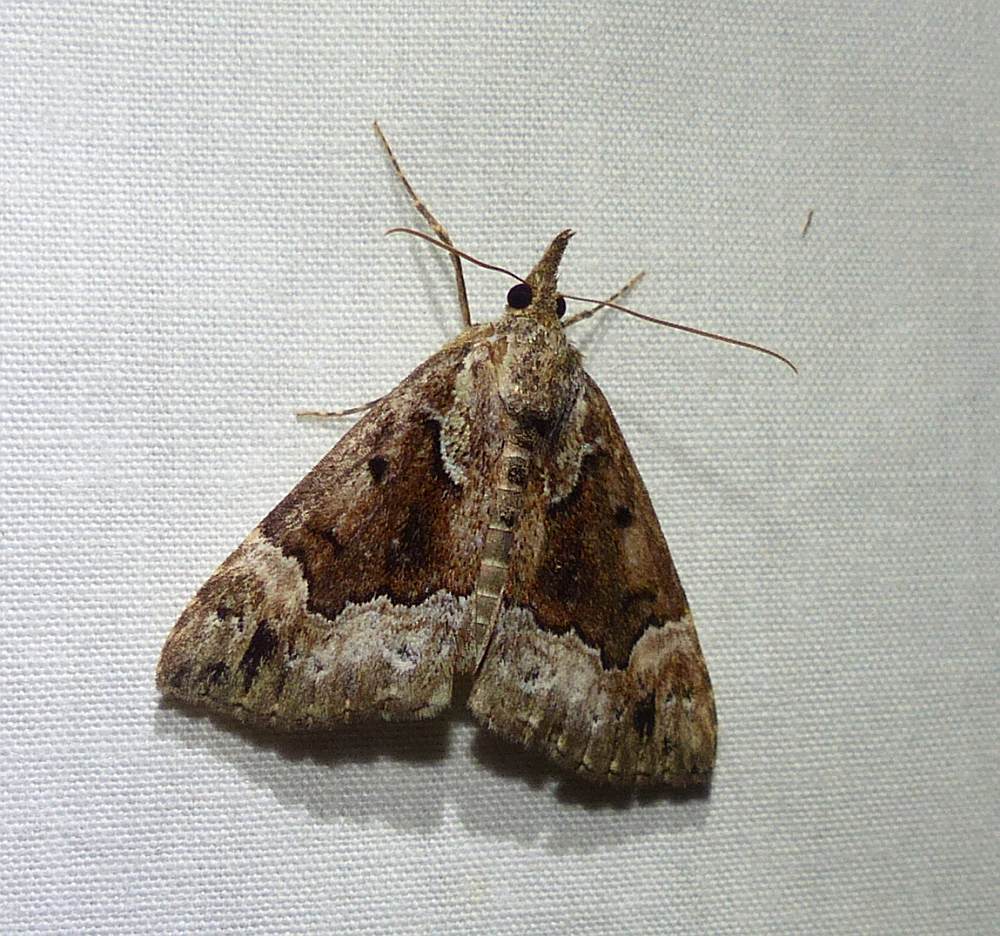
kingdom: Animalia
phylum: Arthropoda
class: Insecta
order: Lepidoptera
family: Erebidae
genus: Hypena
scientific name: Hypena palparia
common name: Mottled bomolocha moth
